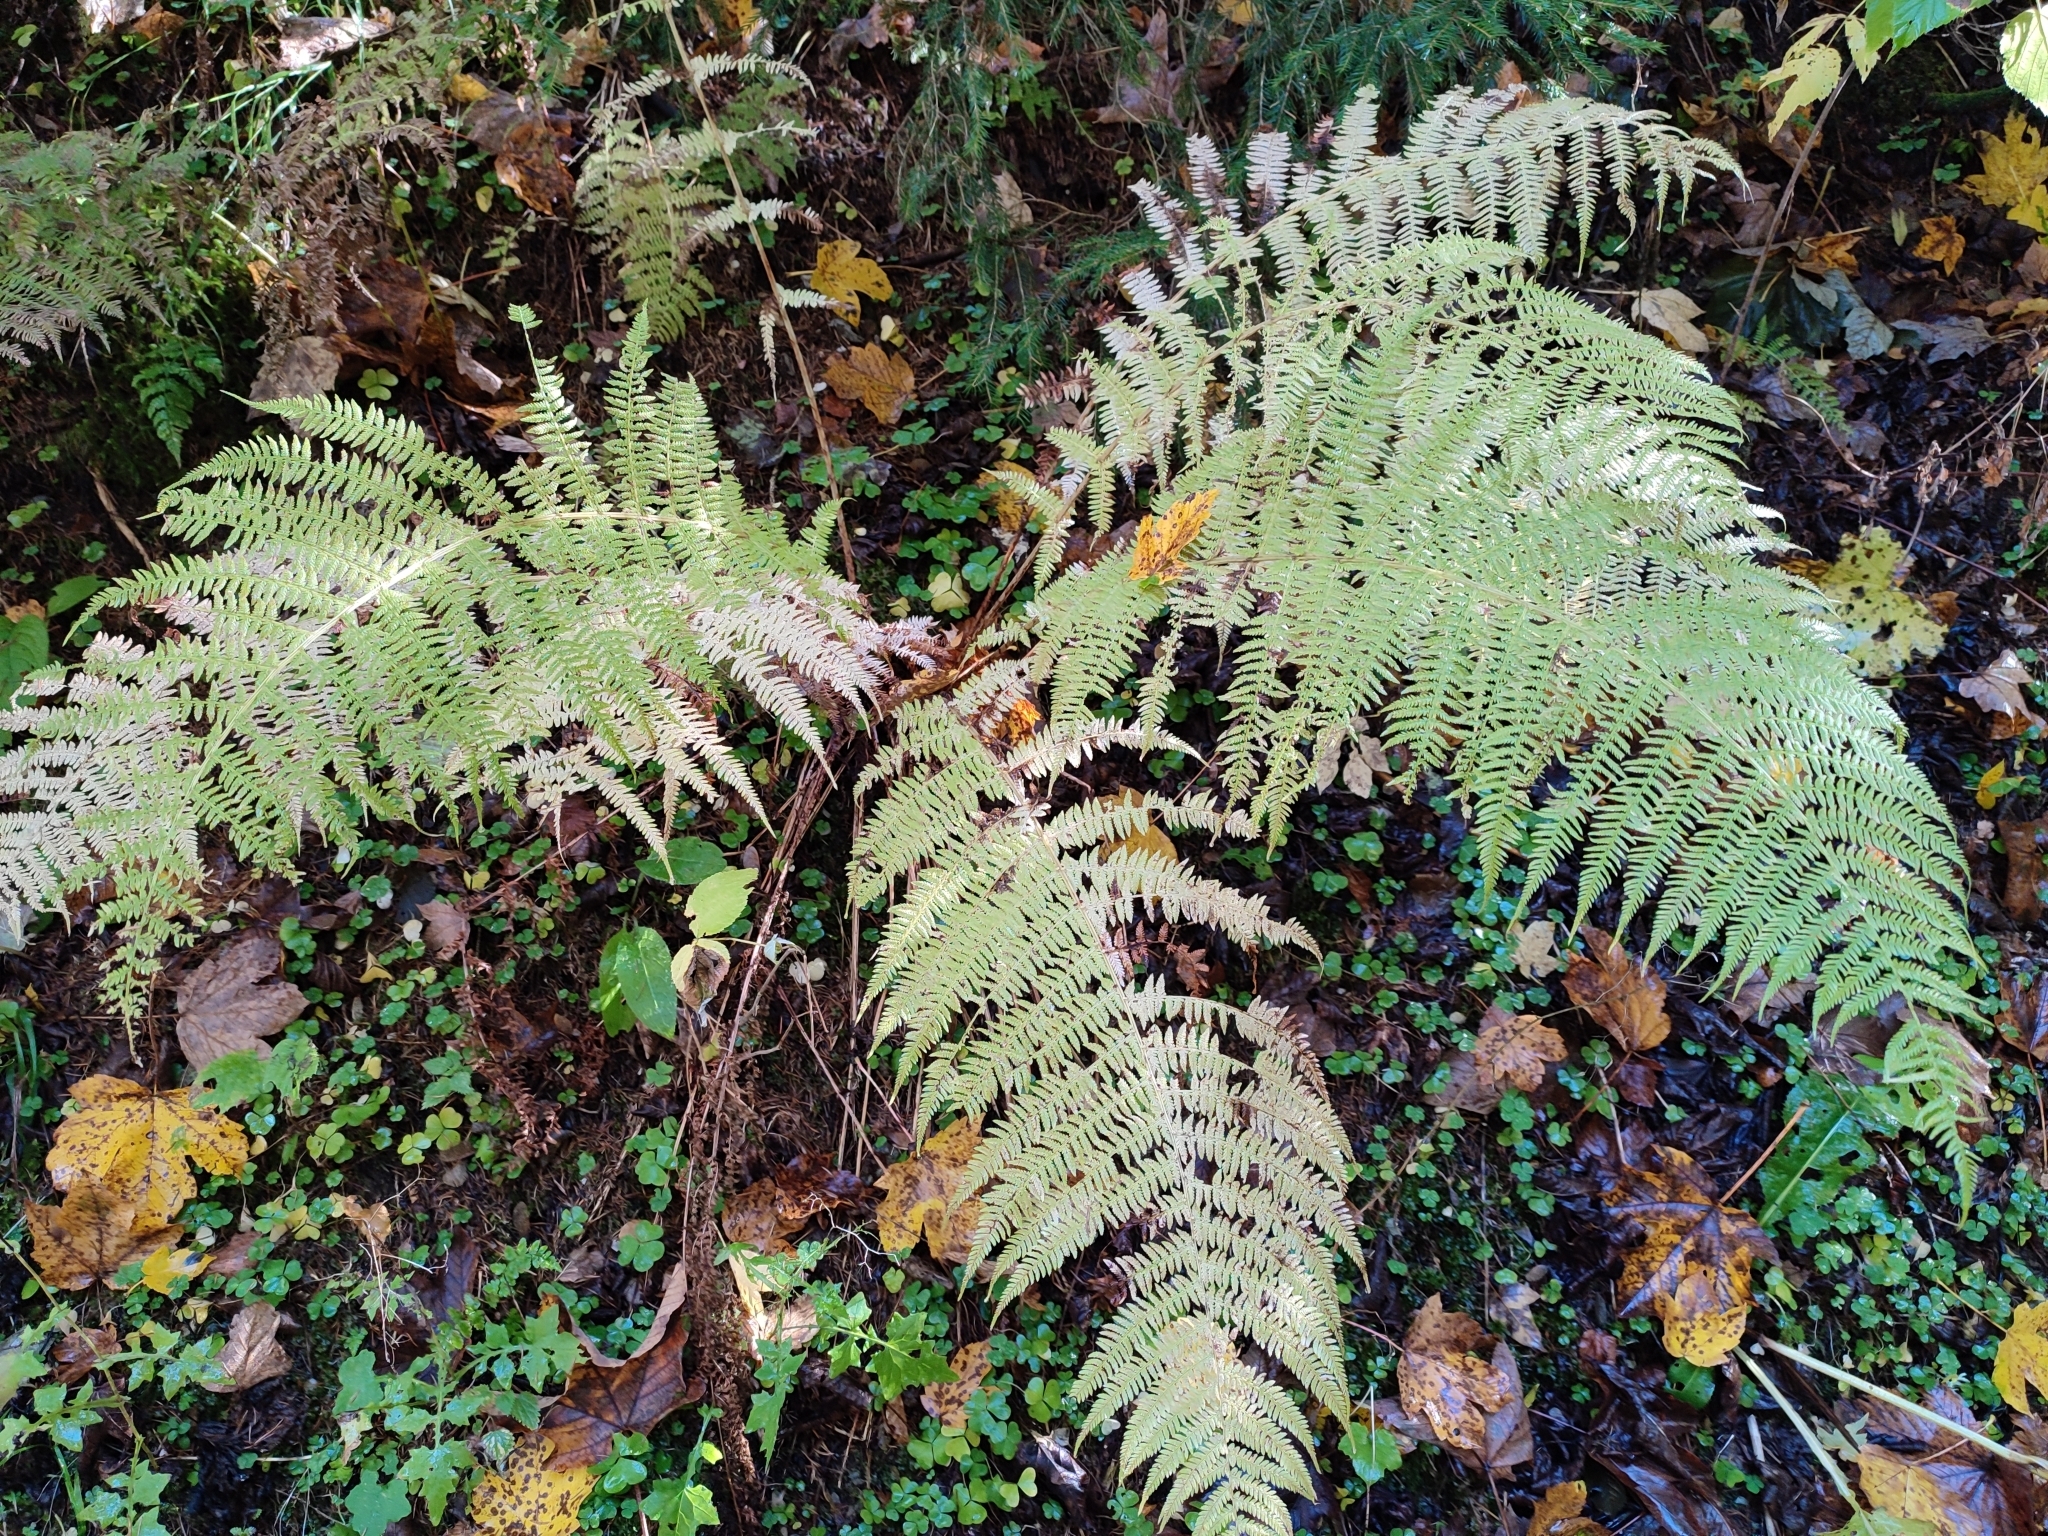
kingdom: Plantae
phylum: Tracheophyta
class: Polypodiopsida
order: Polypodiales
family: Athyriaceae
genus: Athyrium
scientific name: Athyrium filix-femina
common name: Lady fern
